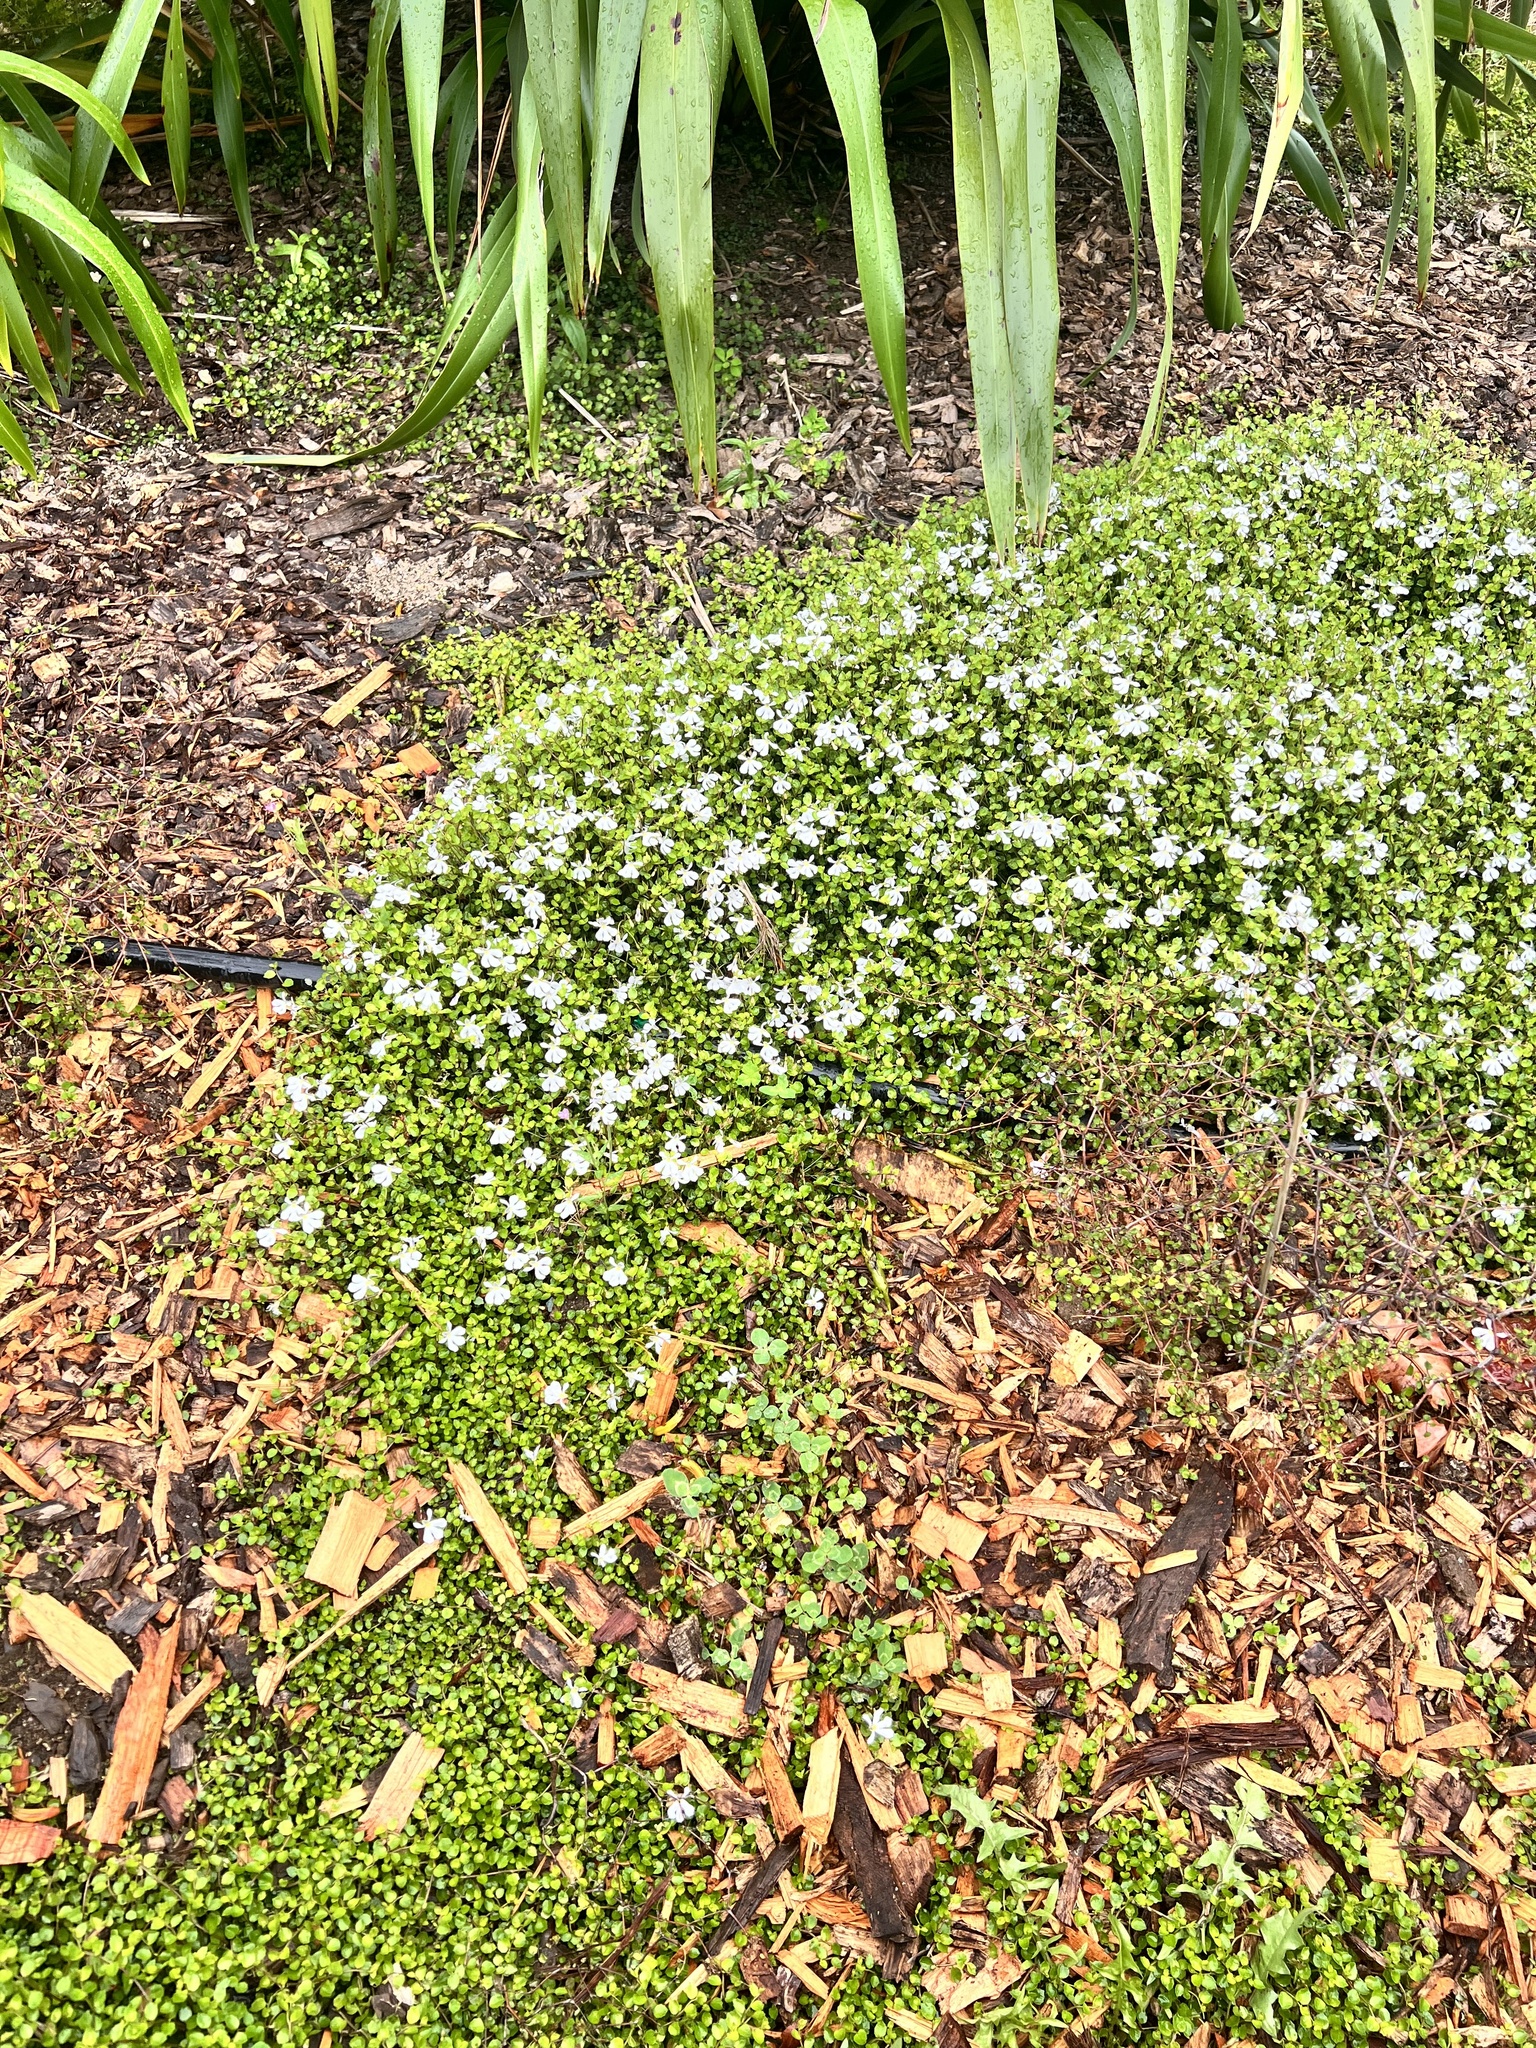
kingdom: Plantae
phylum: Tracheophyta
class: Magnoliopsida
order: Asterales
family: Campanulaceae
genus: Lobelia
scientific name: Lobelia angulata
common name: Lawn lobelia
